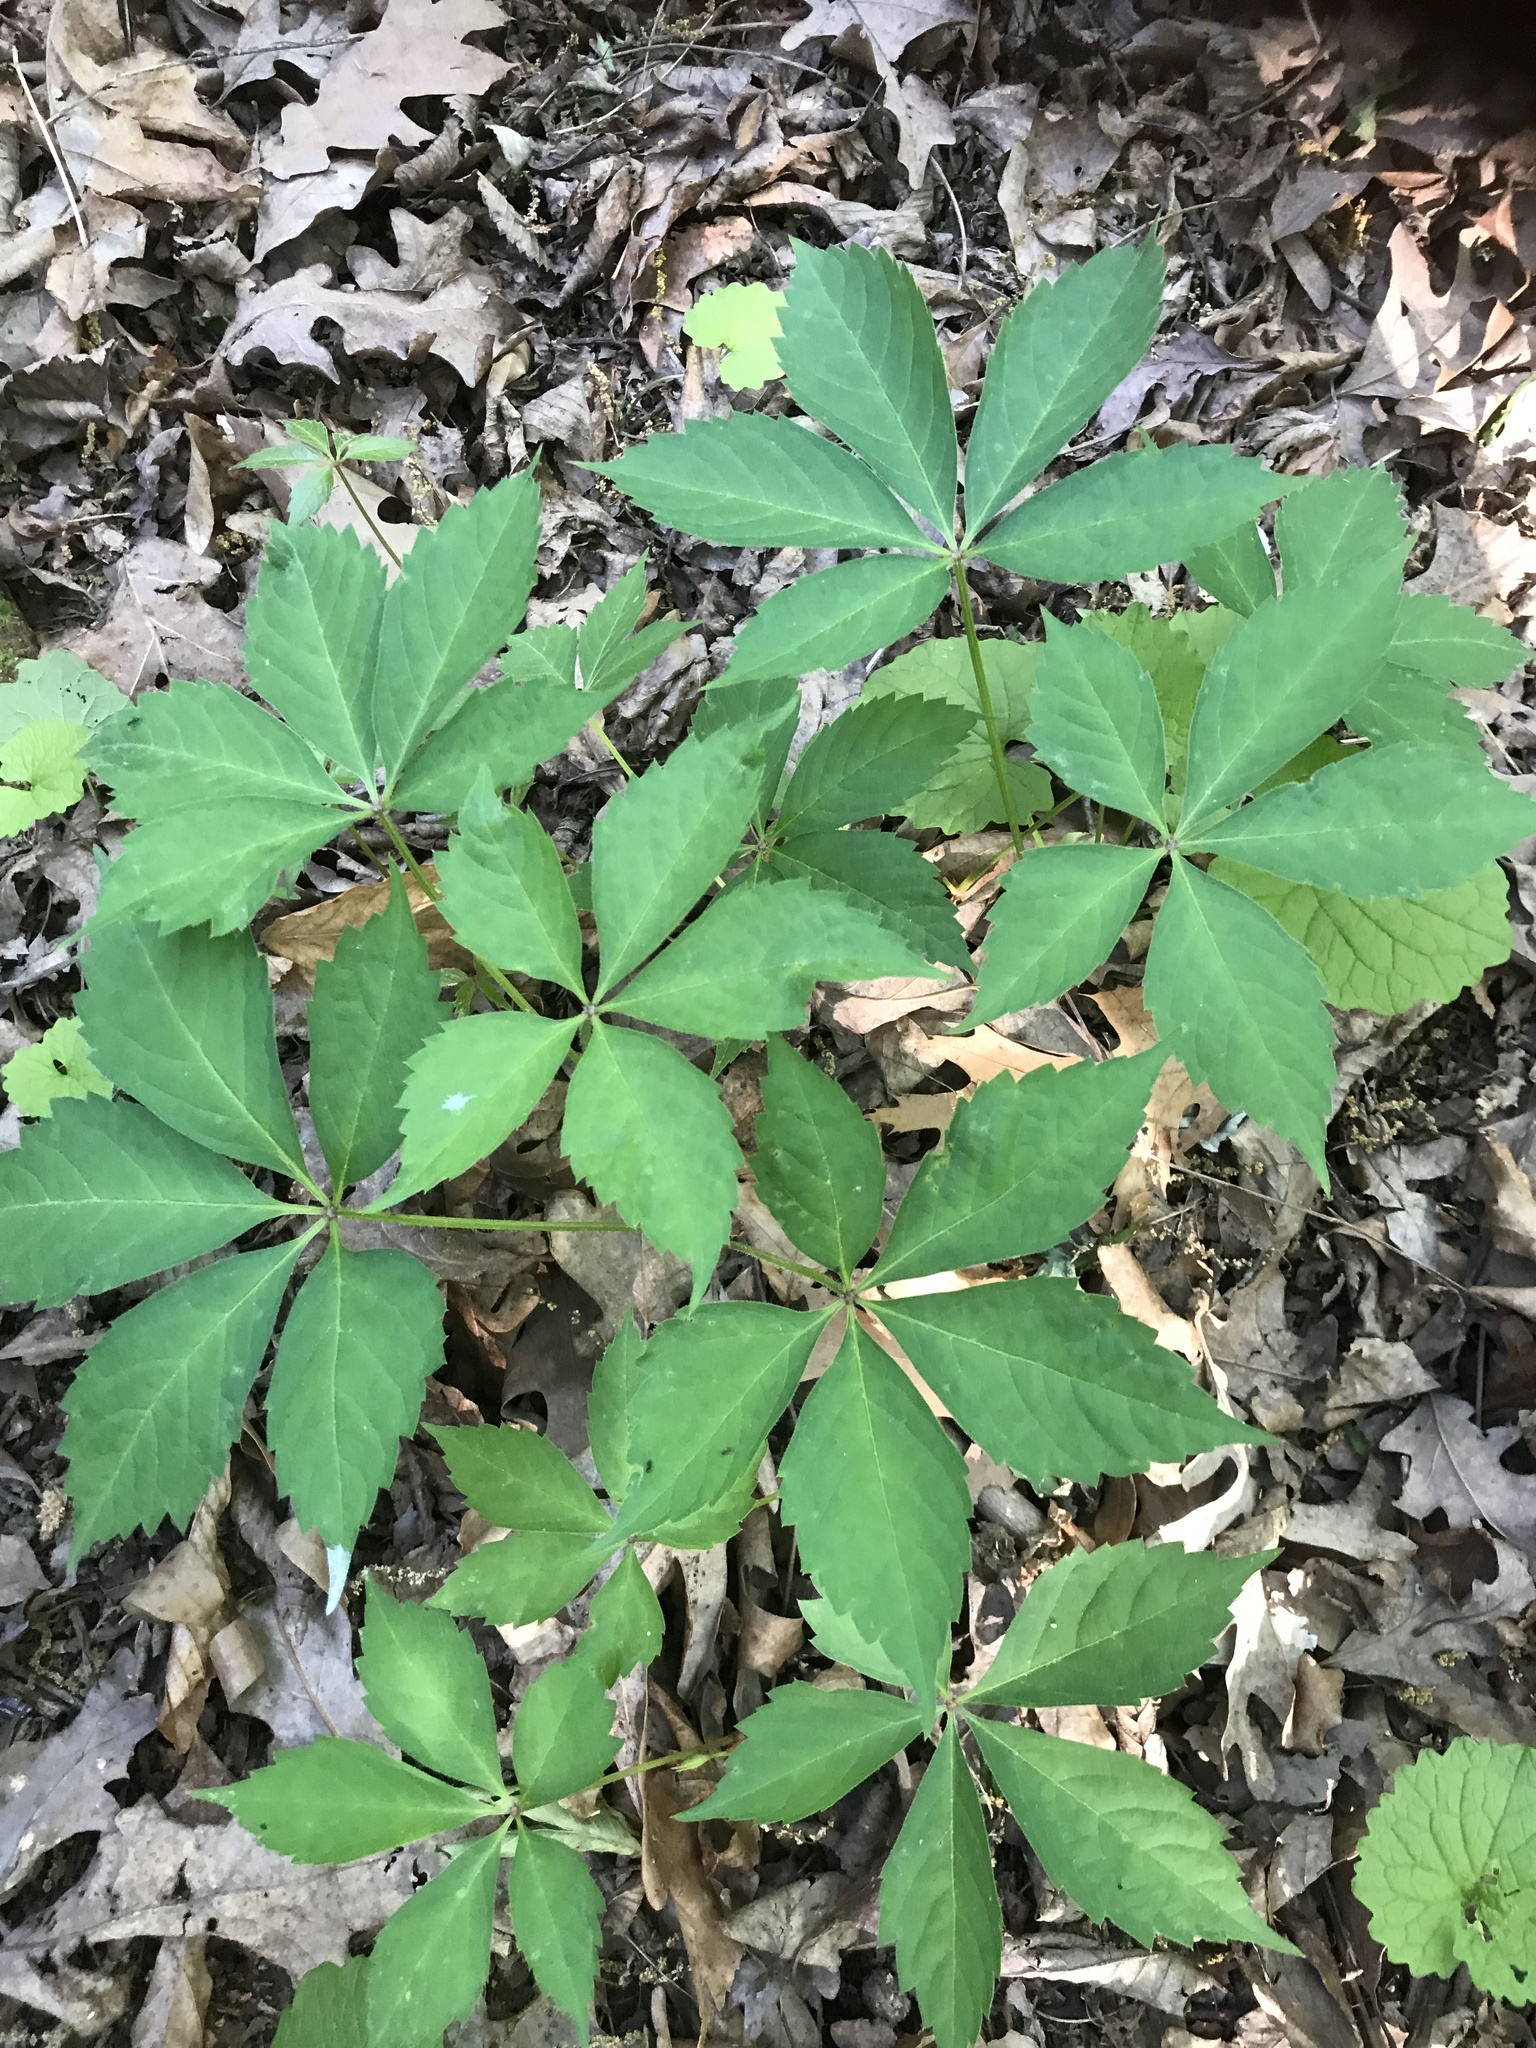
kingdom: Plantae
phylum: Tracheophyta
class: Magnoliopsida
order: Vitales
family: Vitaceae
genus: Parthenocissus
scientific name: Parthenocissus quinquefolia
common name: Virginia-creeper
